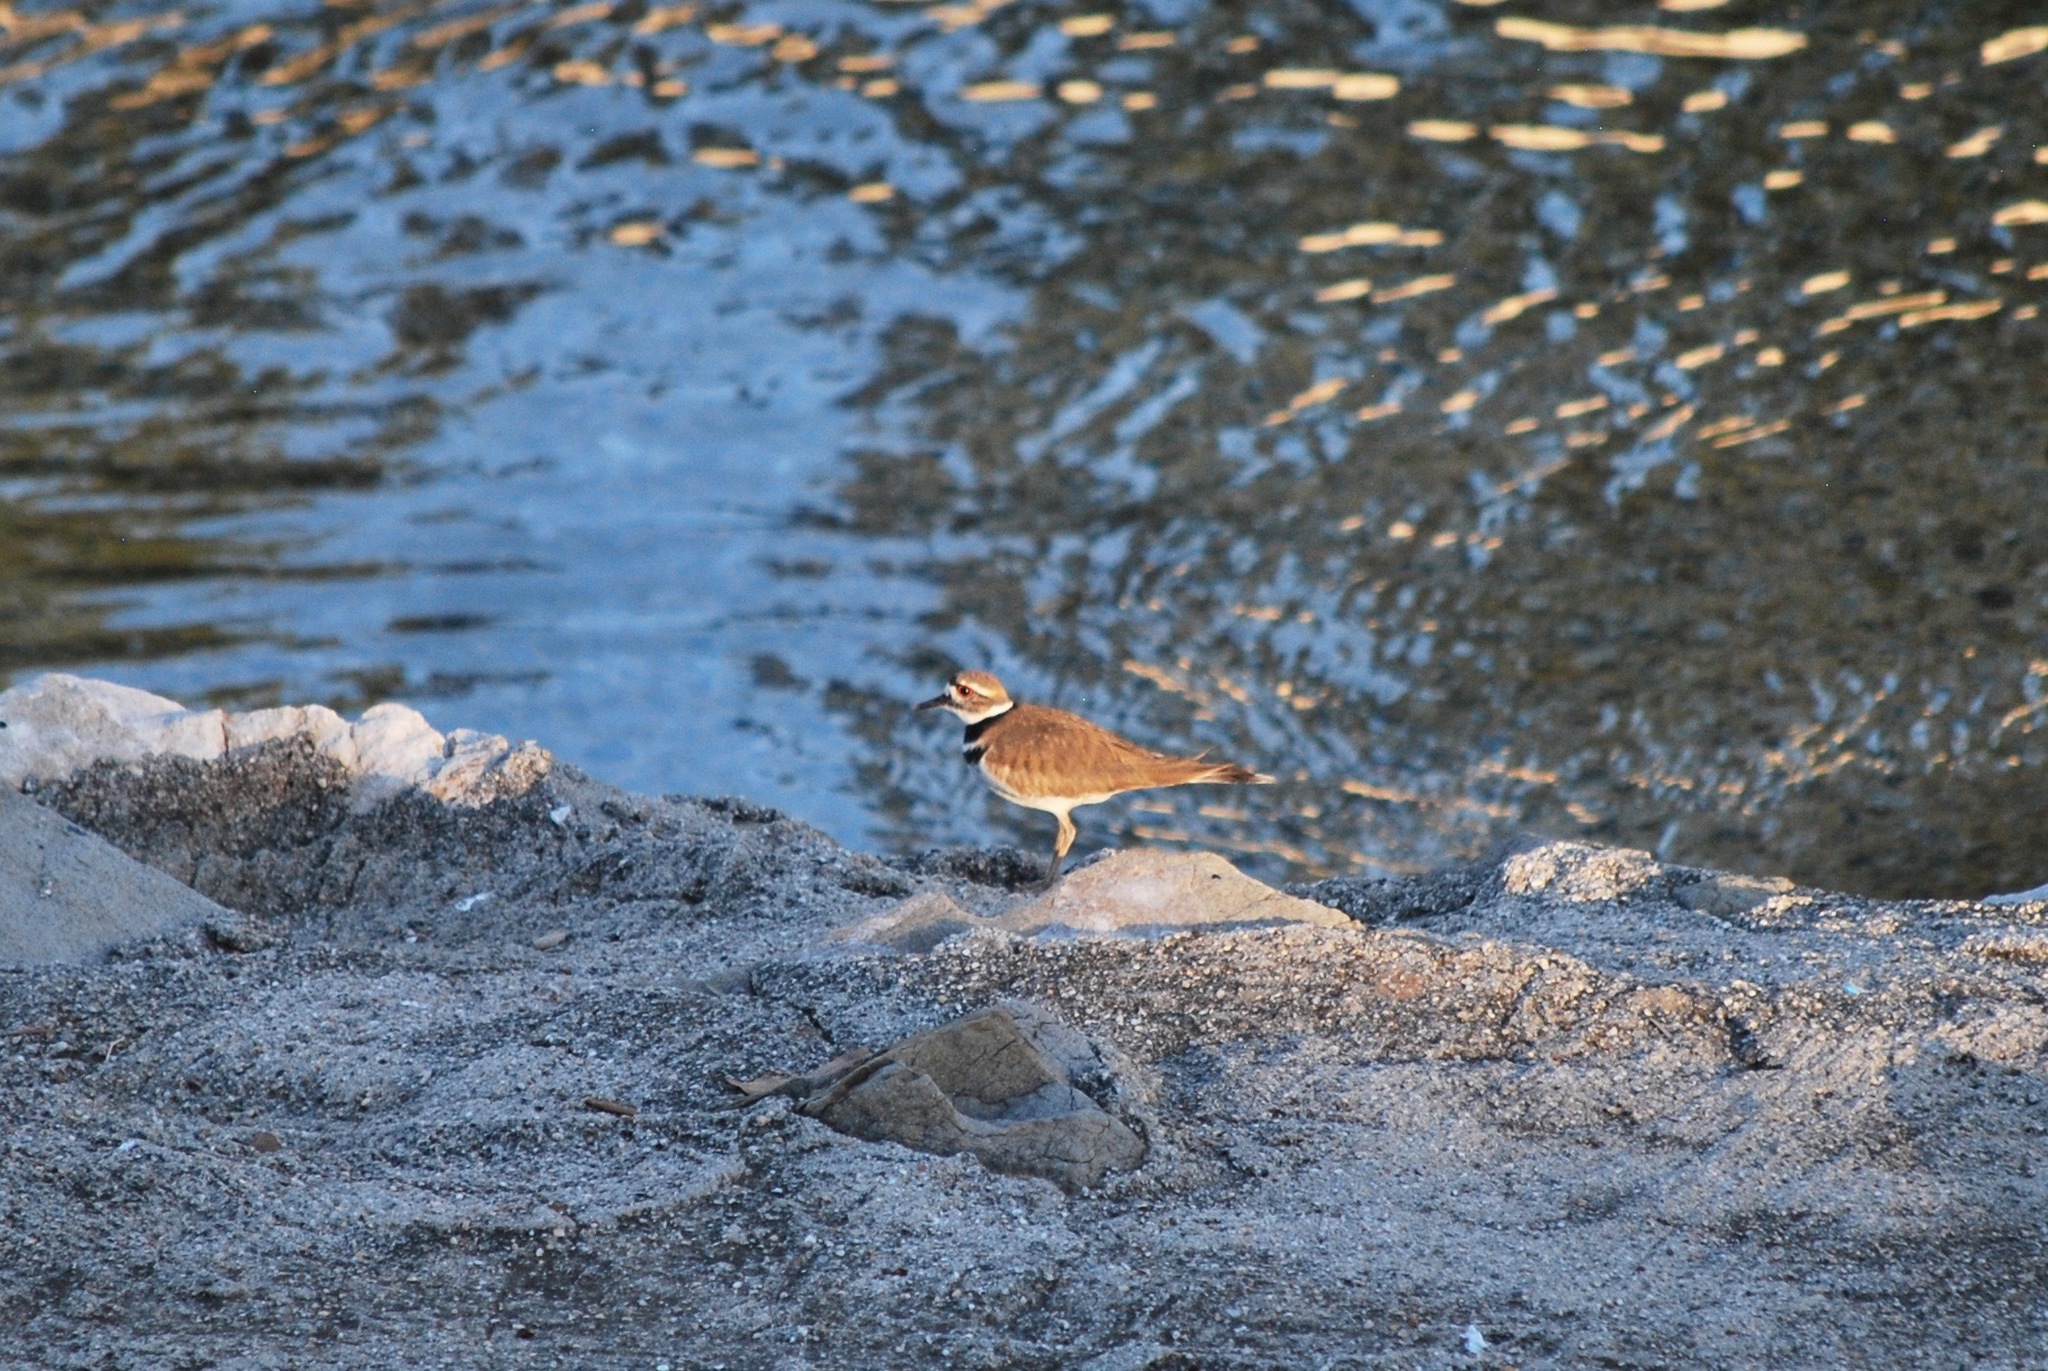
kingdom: Animalia
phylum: Chordata
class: Aves
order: Charadriiformes
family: Charadriidae
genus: Charadrius
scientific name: Charadrius vociferus
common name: Killdeer
